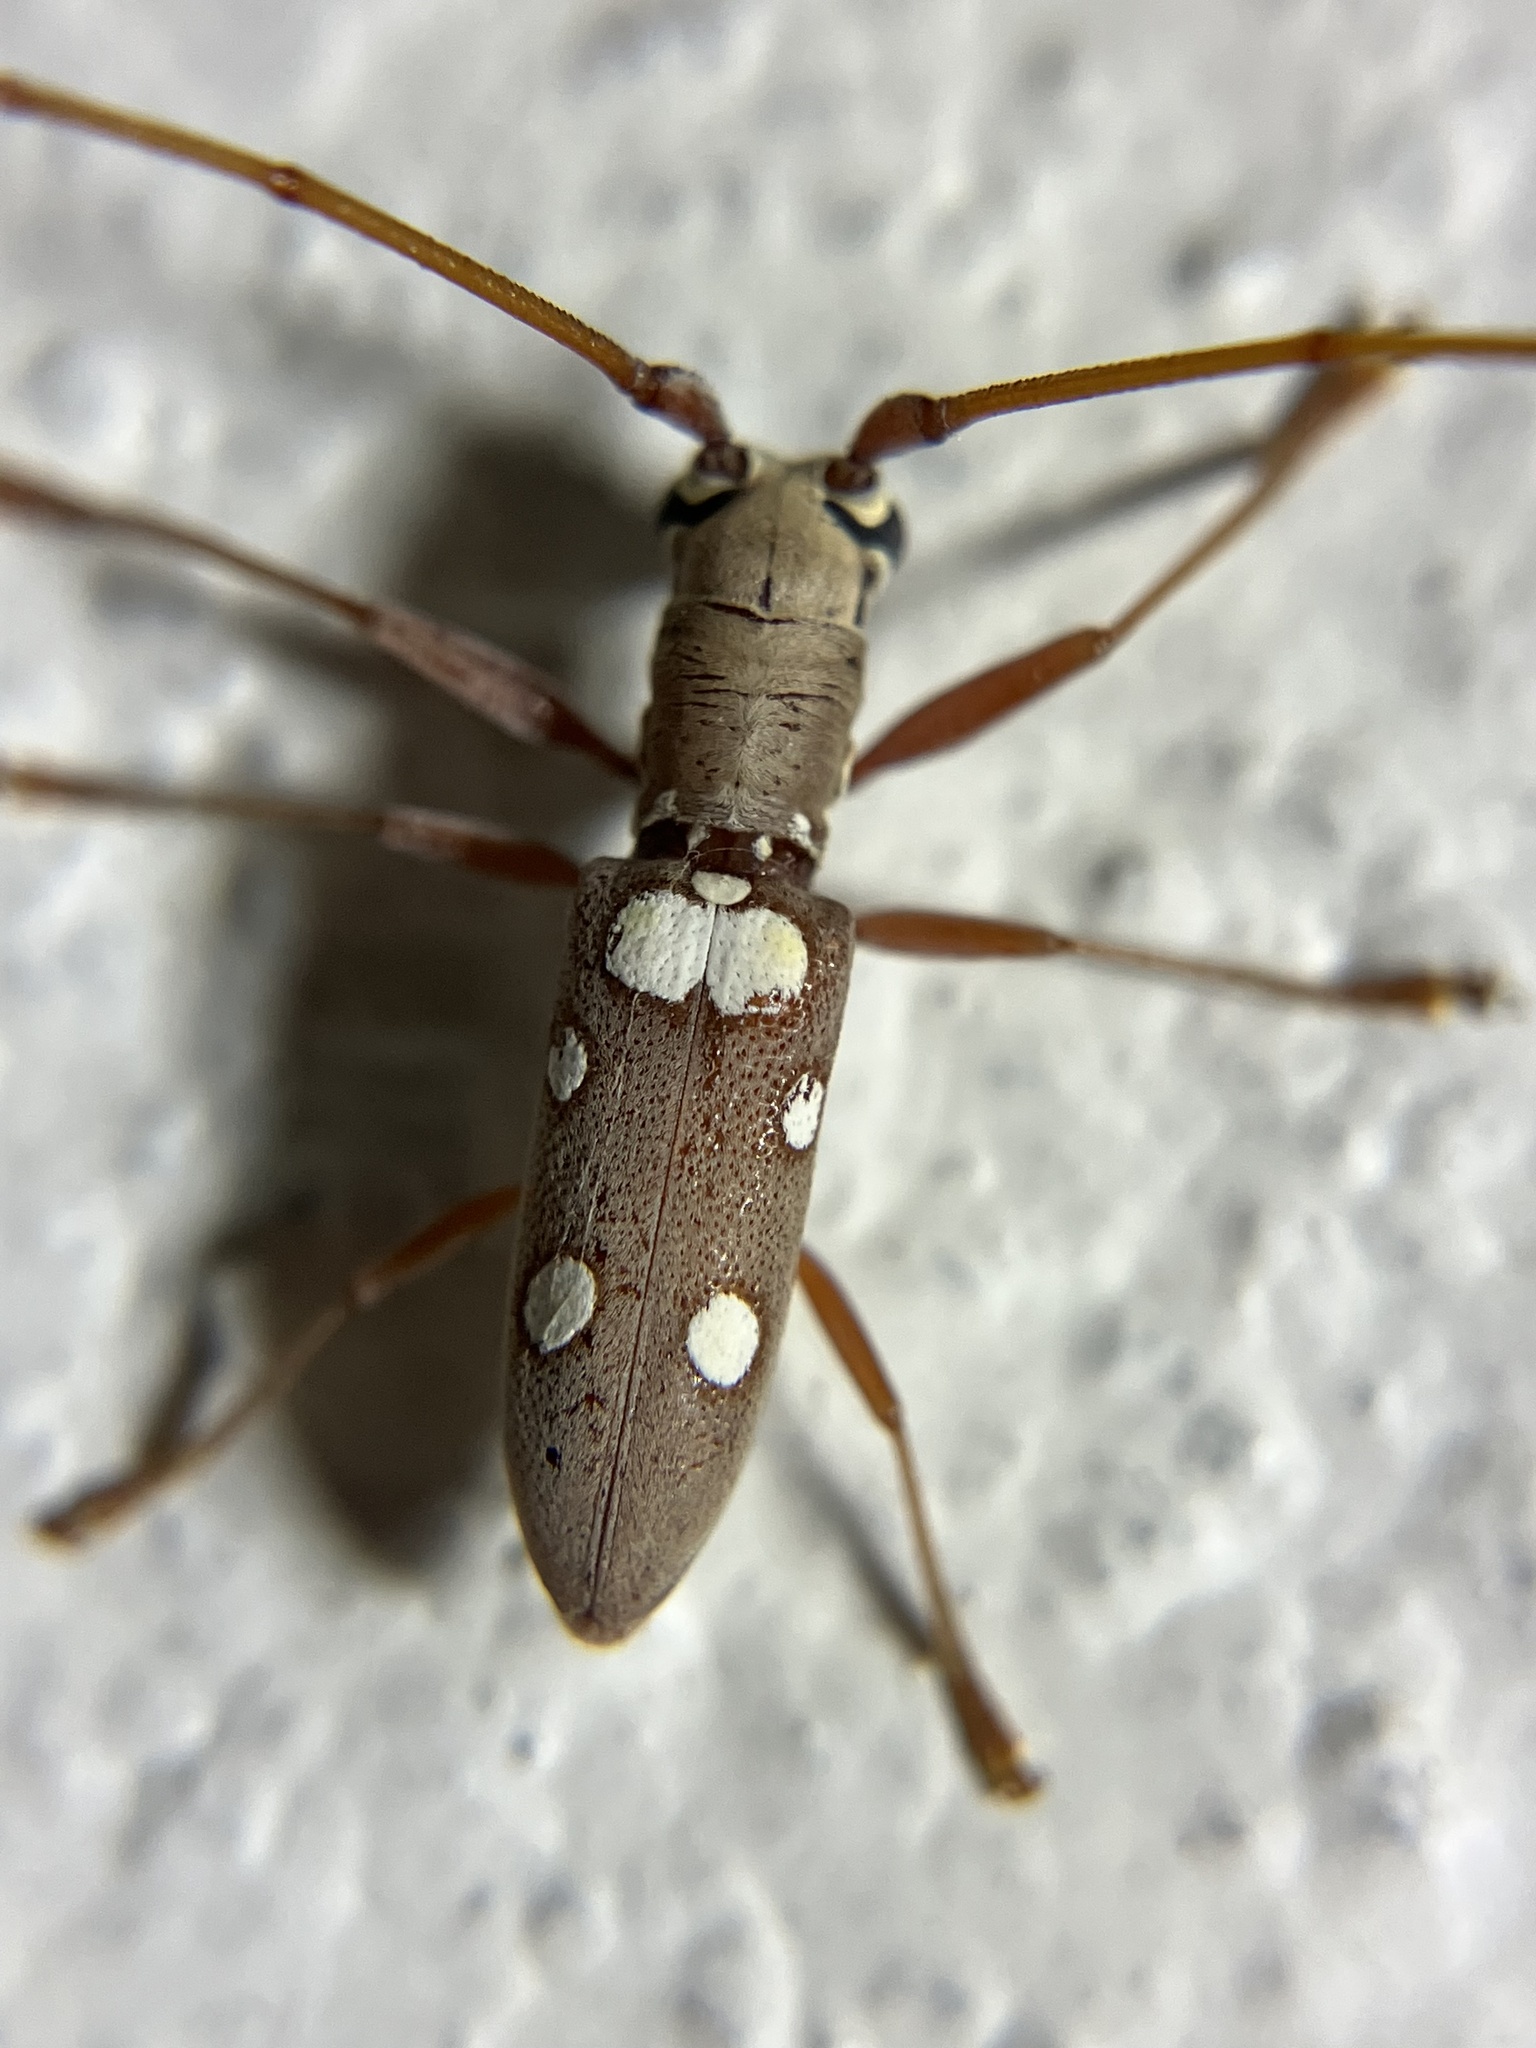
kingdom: Animalia
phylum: Arthropoda
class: Insecta
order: Coleoptera
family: Cerambycidae
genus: Olenecamptus
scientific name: Olenecamptus bilobus
